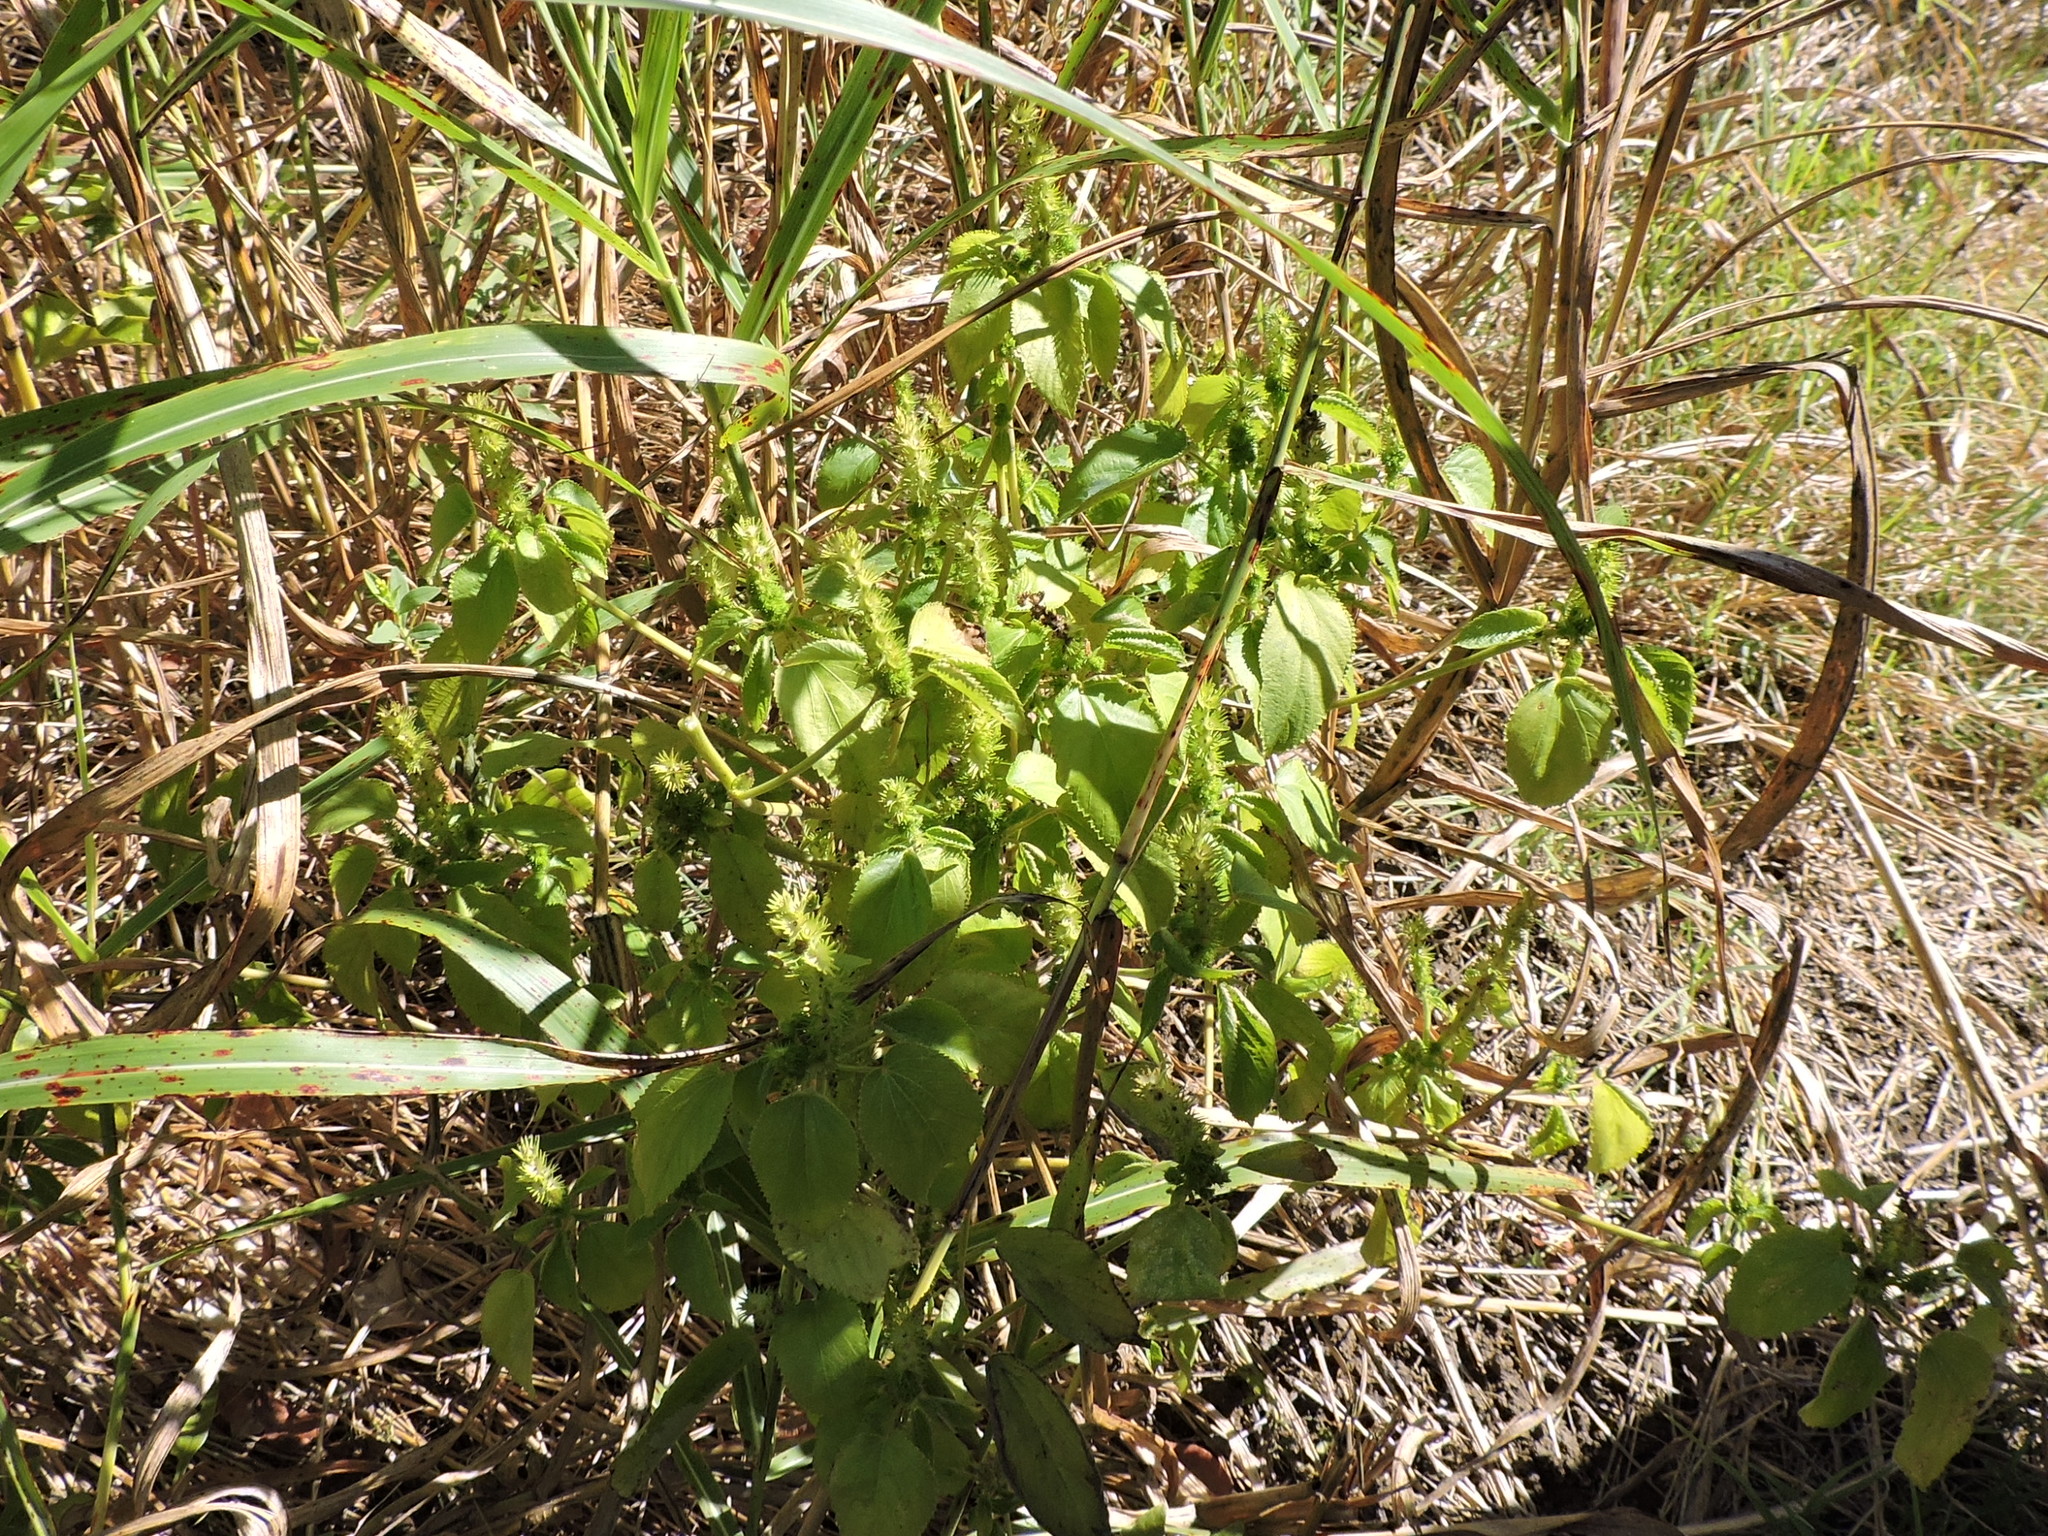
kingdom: Plantae
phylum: Tracheophyta
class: Magnoliopsida
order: Malpighiales
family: Euphorbiaceae
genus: Acalypha
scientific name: Acalypha ostryifolia
